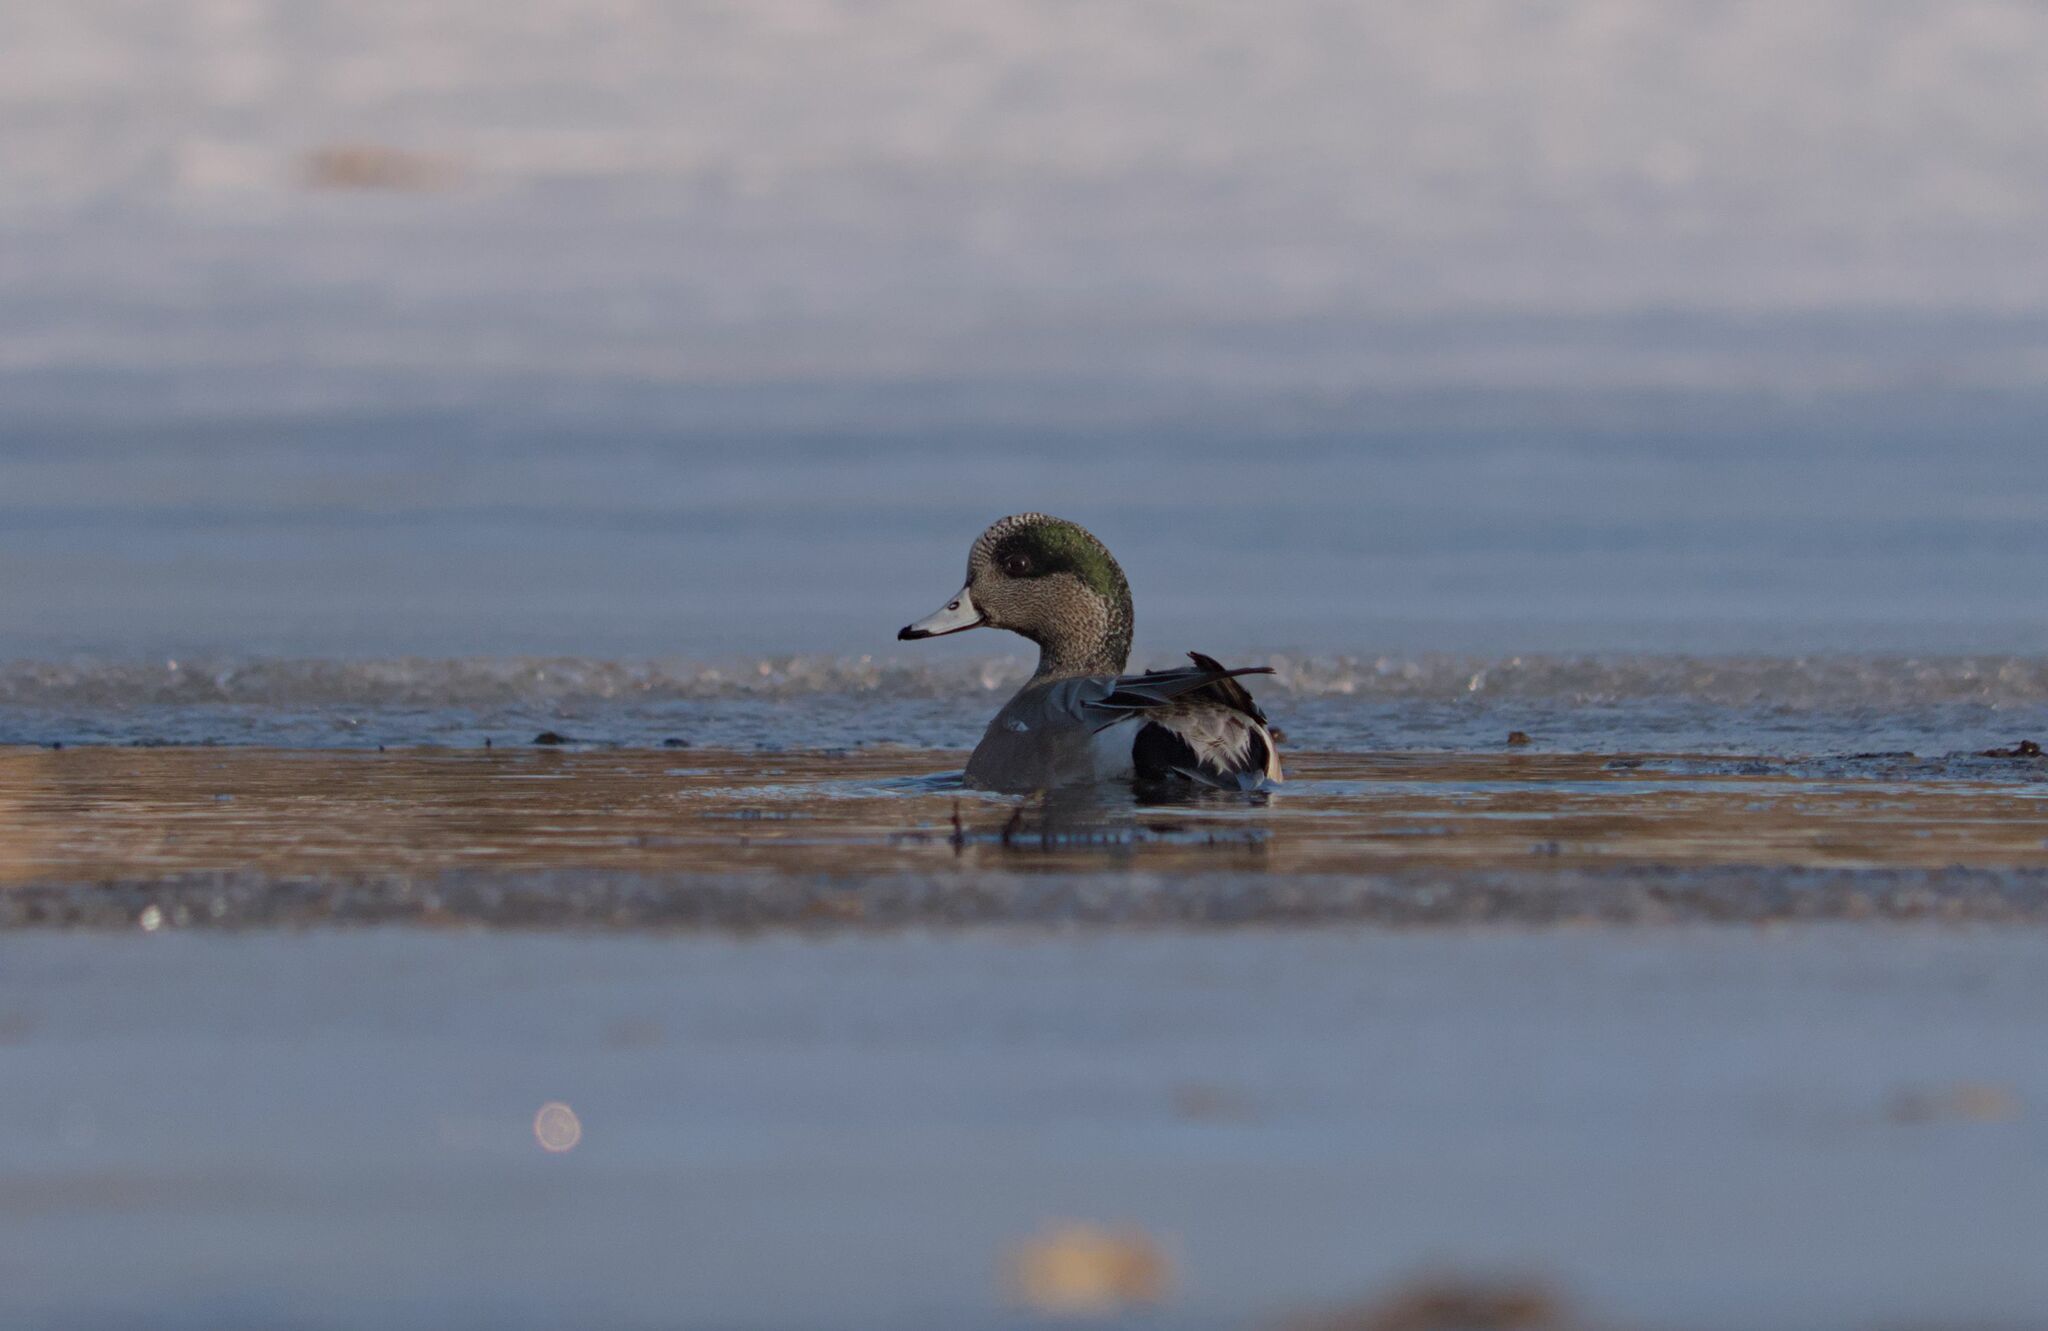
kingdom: Animalia
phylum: Chordata
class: Aves
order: Anseriformes
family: Anatidae
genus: Mareca
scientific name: Mareca americana
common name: American wigeon
